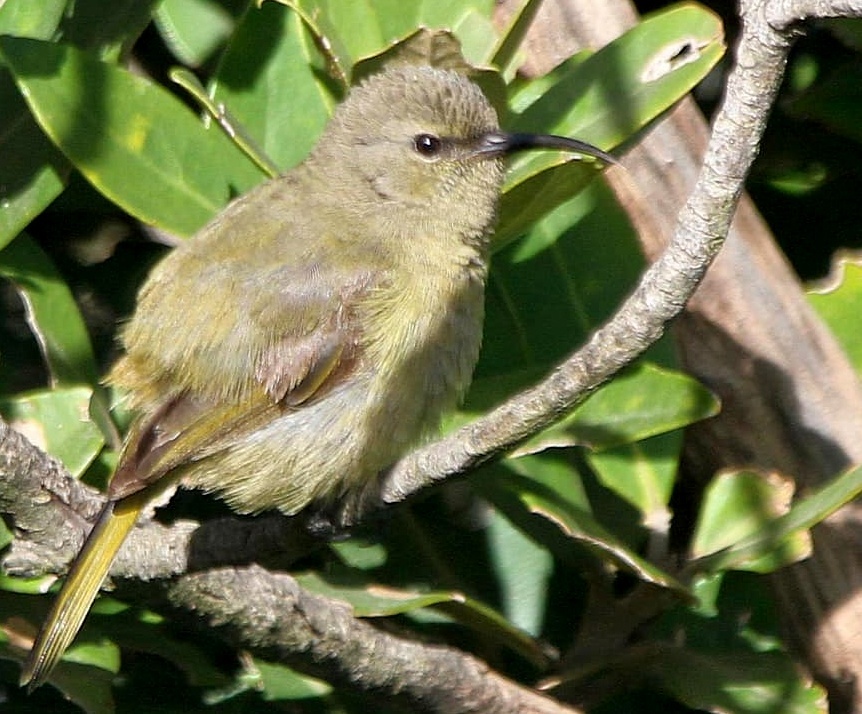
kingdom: Animalia
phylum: Chordata
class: Aves
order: Passeriformes
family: Nectariniidae
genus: Anthobaphes
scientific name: Anthobaphes violacea
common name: Orange-breasted sunbird
